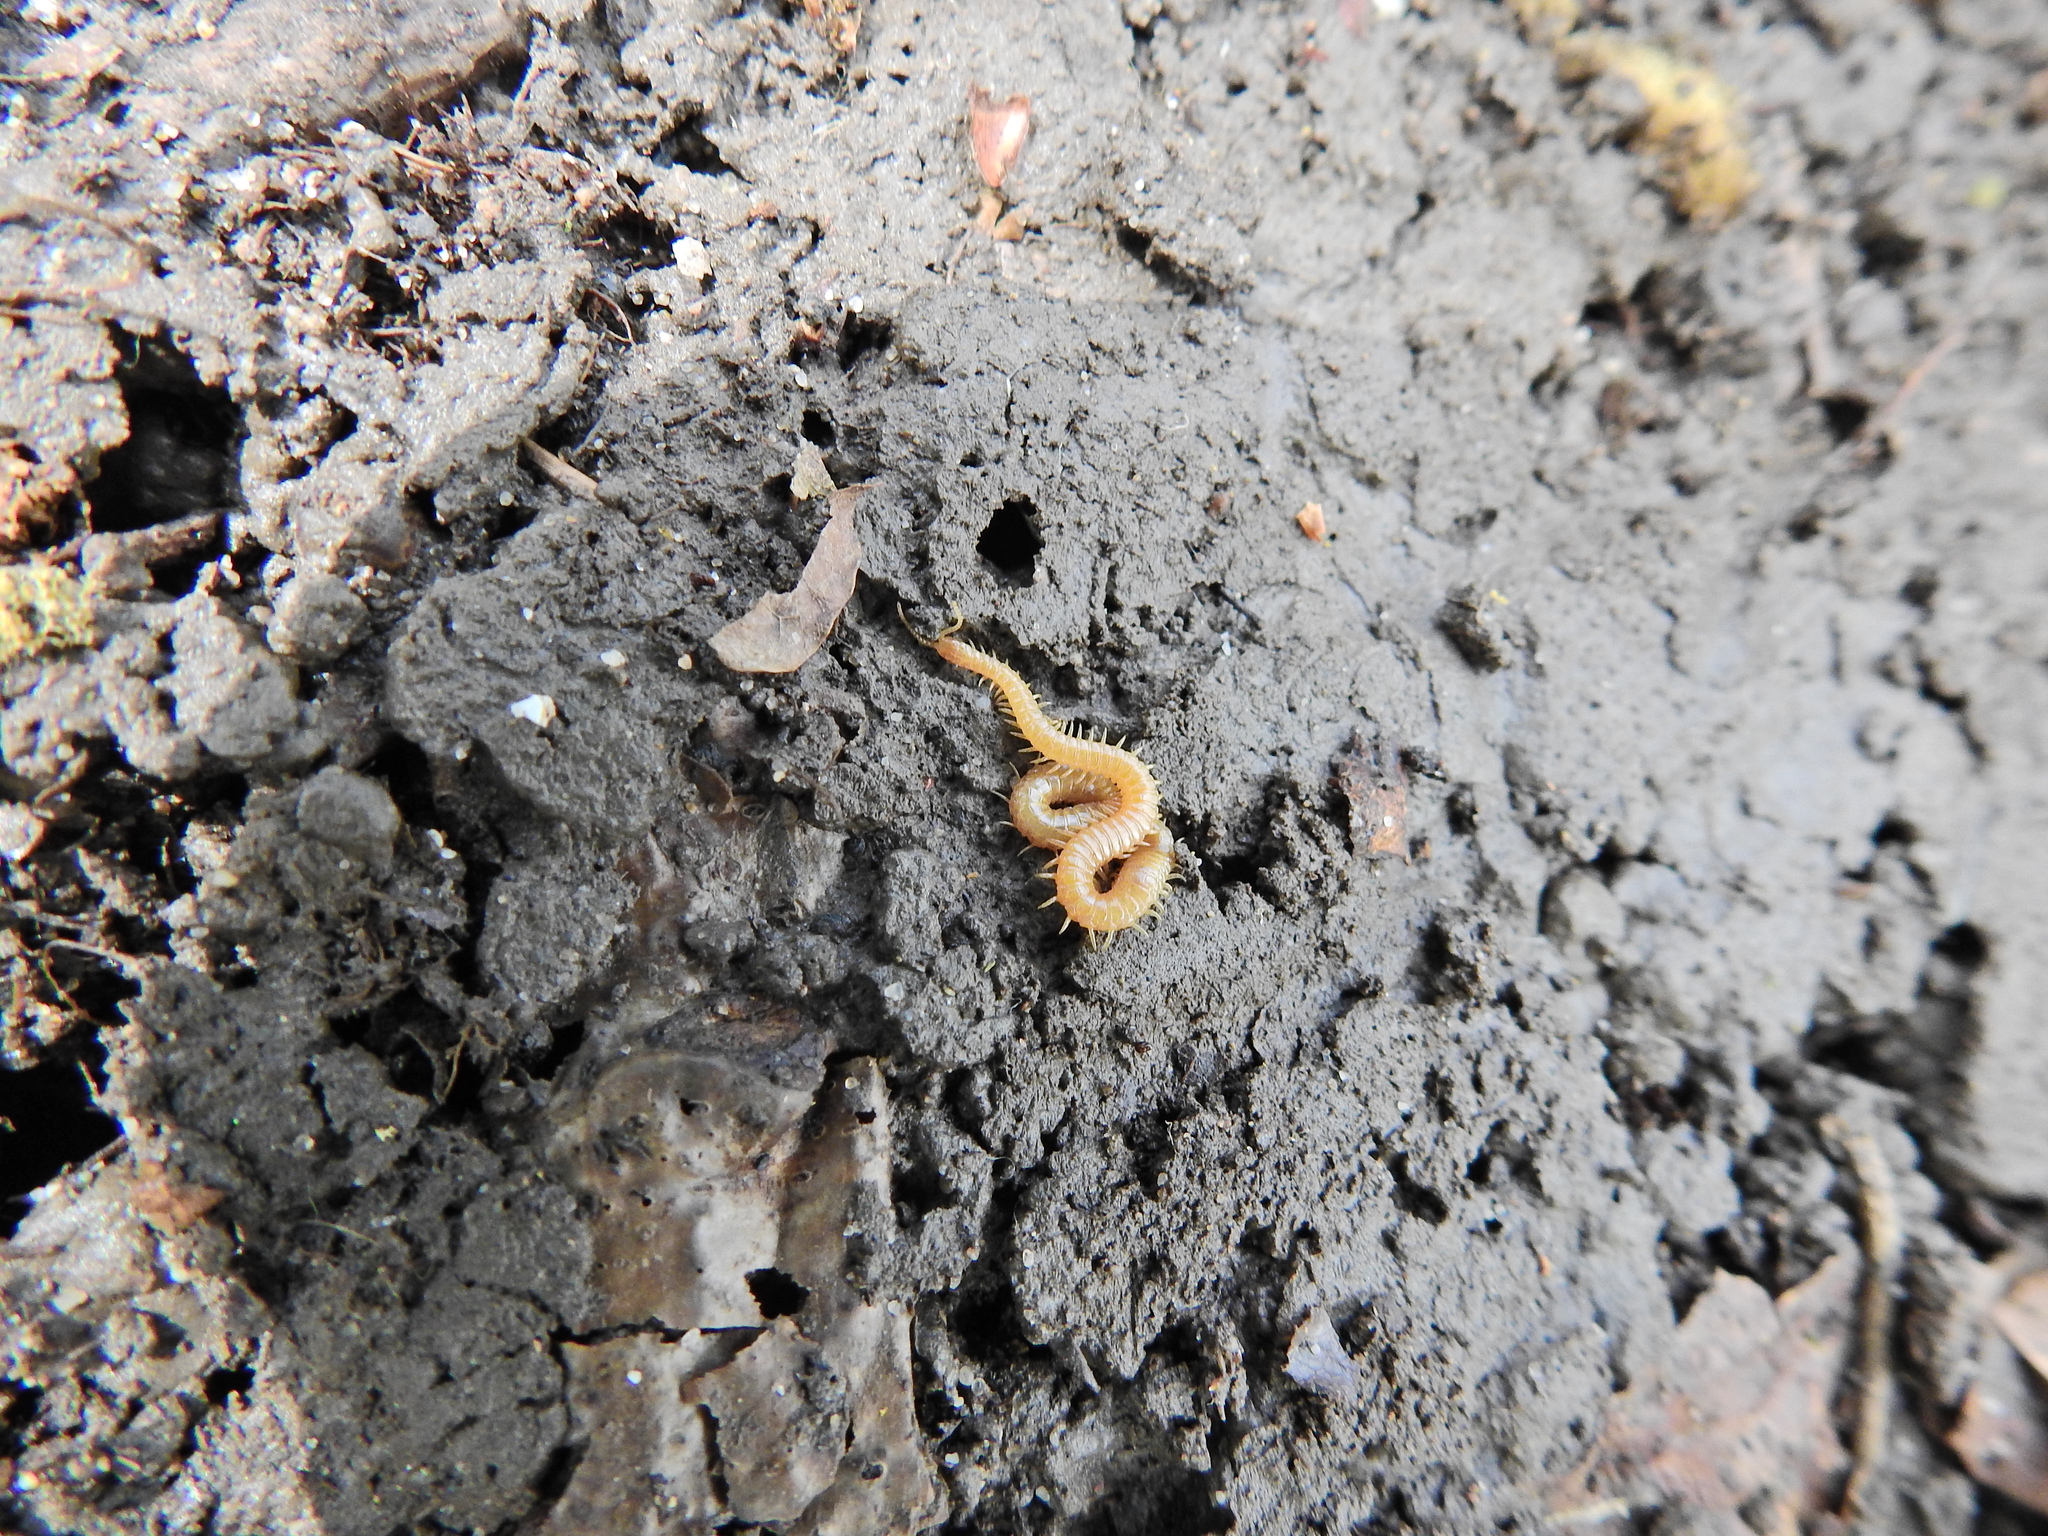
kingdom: Animalia
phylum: Arthropoda
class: Chilopoda
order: Geophilomorpha
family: Himantariidae
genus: Stigmatogaster
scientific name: Stigmatogaster subterranea
